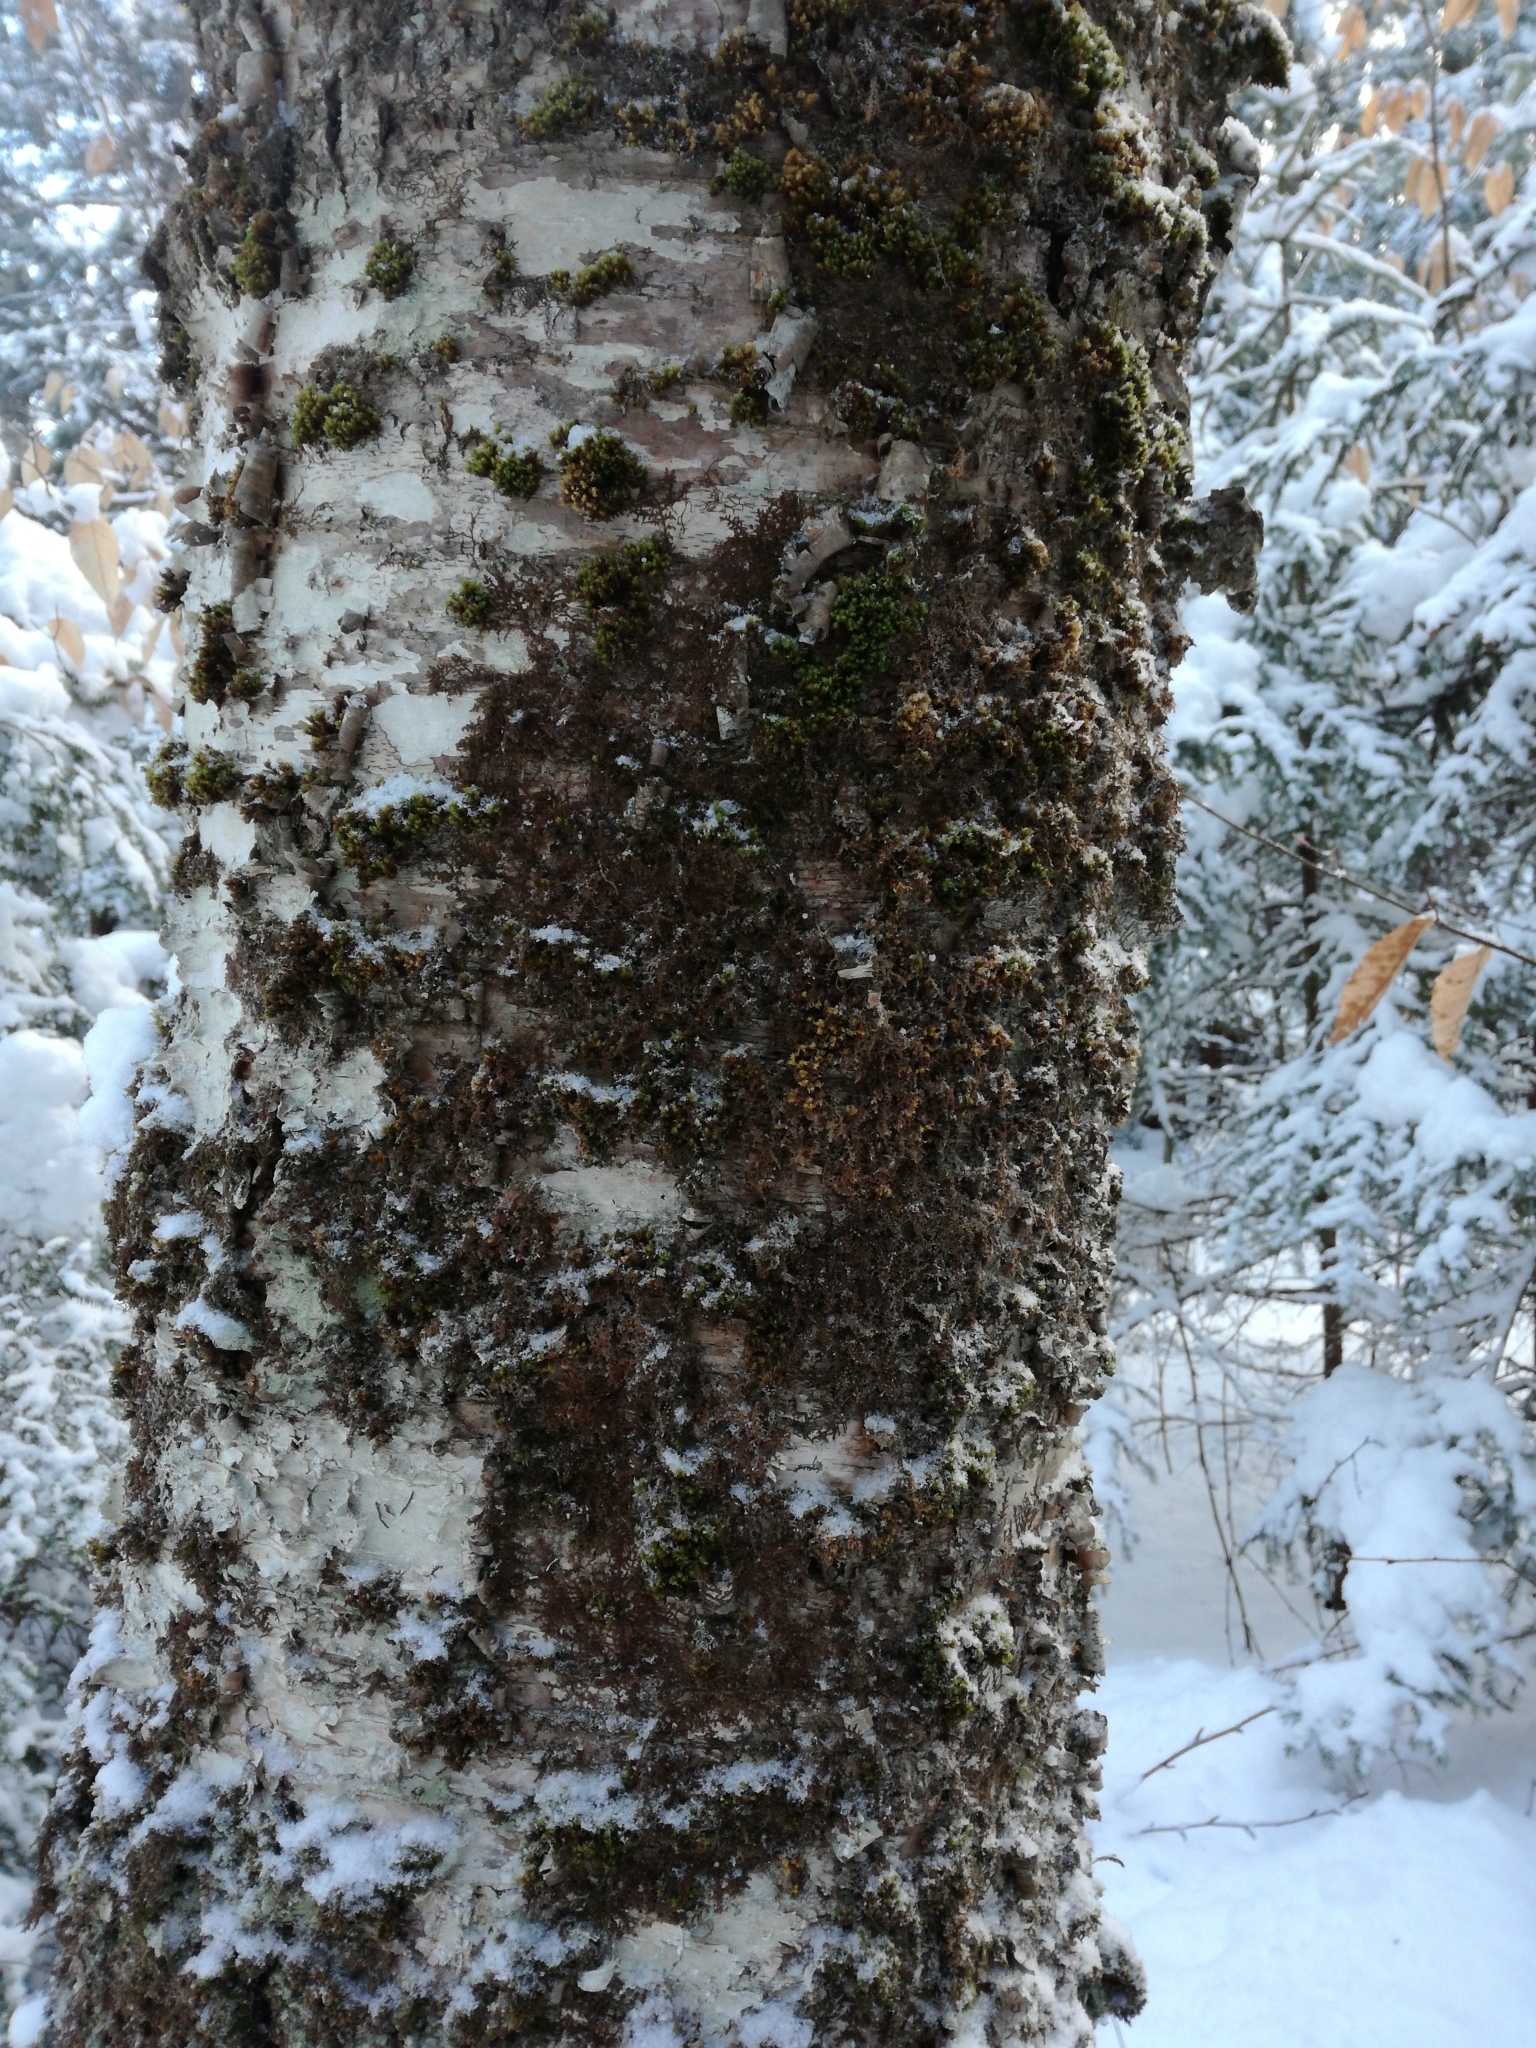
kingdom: Plantae
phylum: Bryophyta
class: Bryopsida
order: Orthotrichales
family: Orthotrichaceae
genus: Ulota
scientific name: Ulota crispa
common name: Crisped pincushion moss
